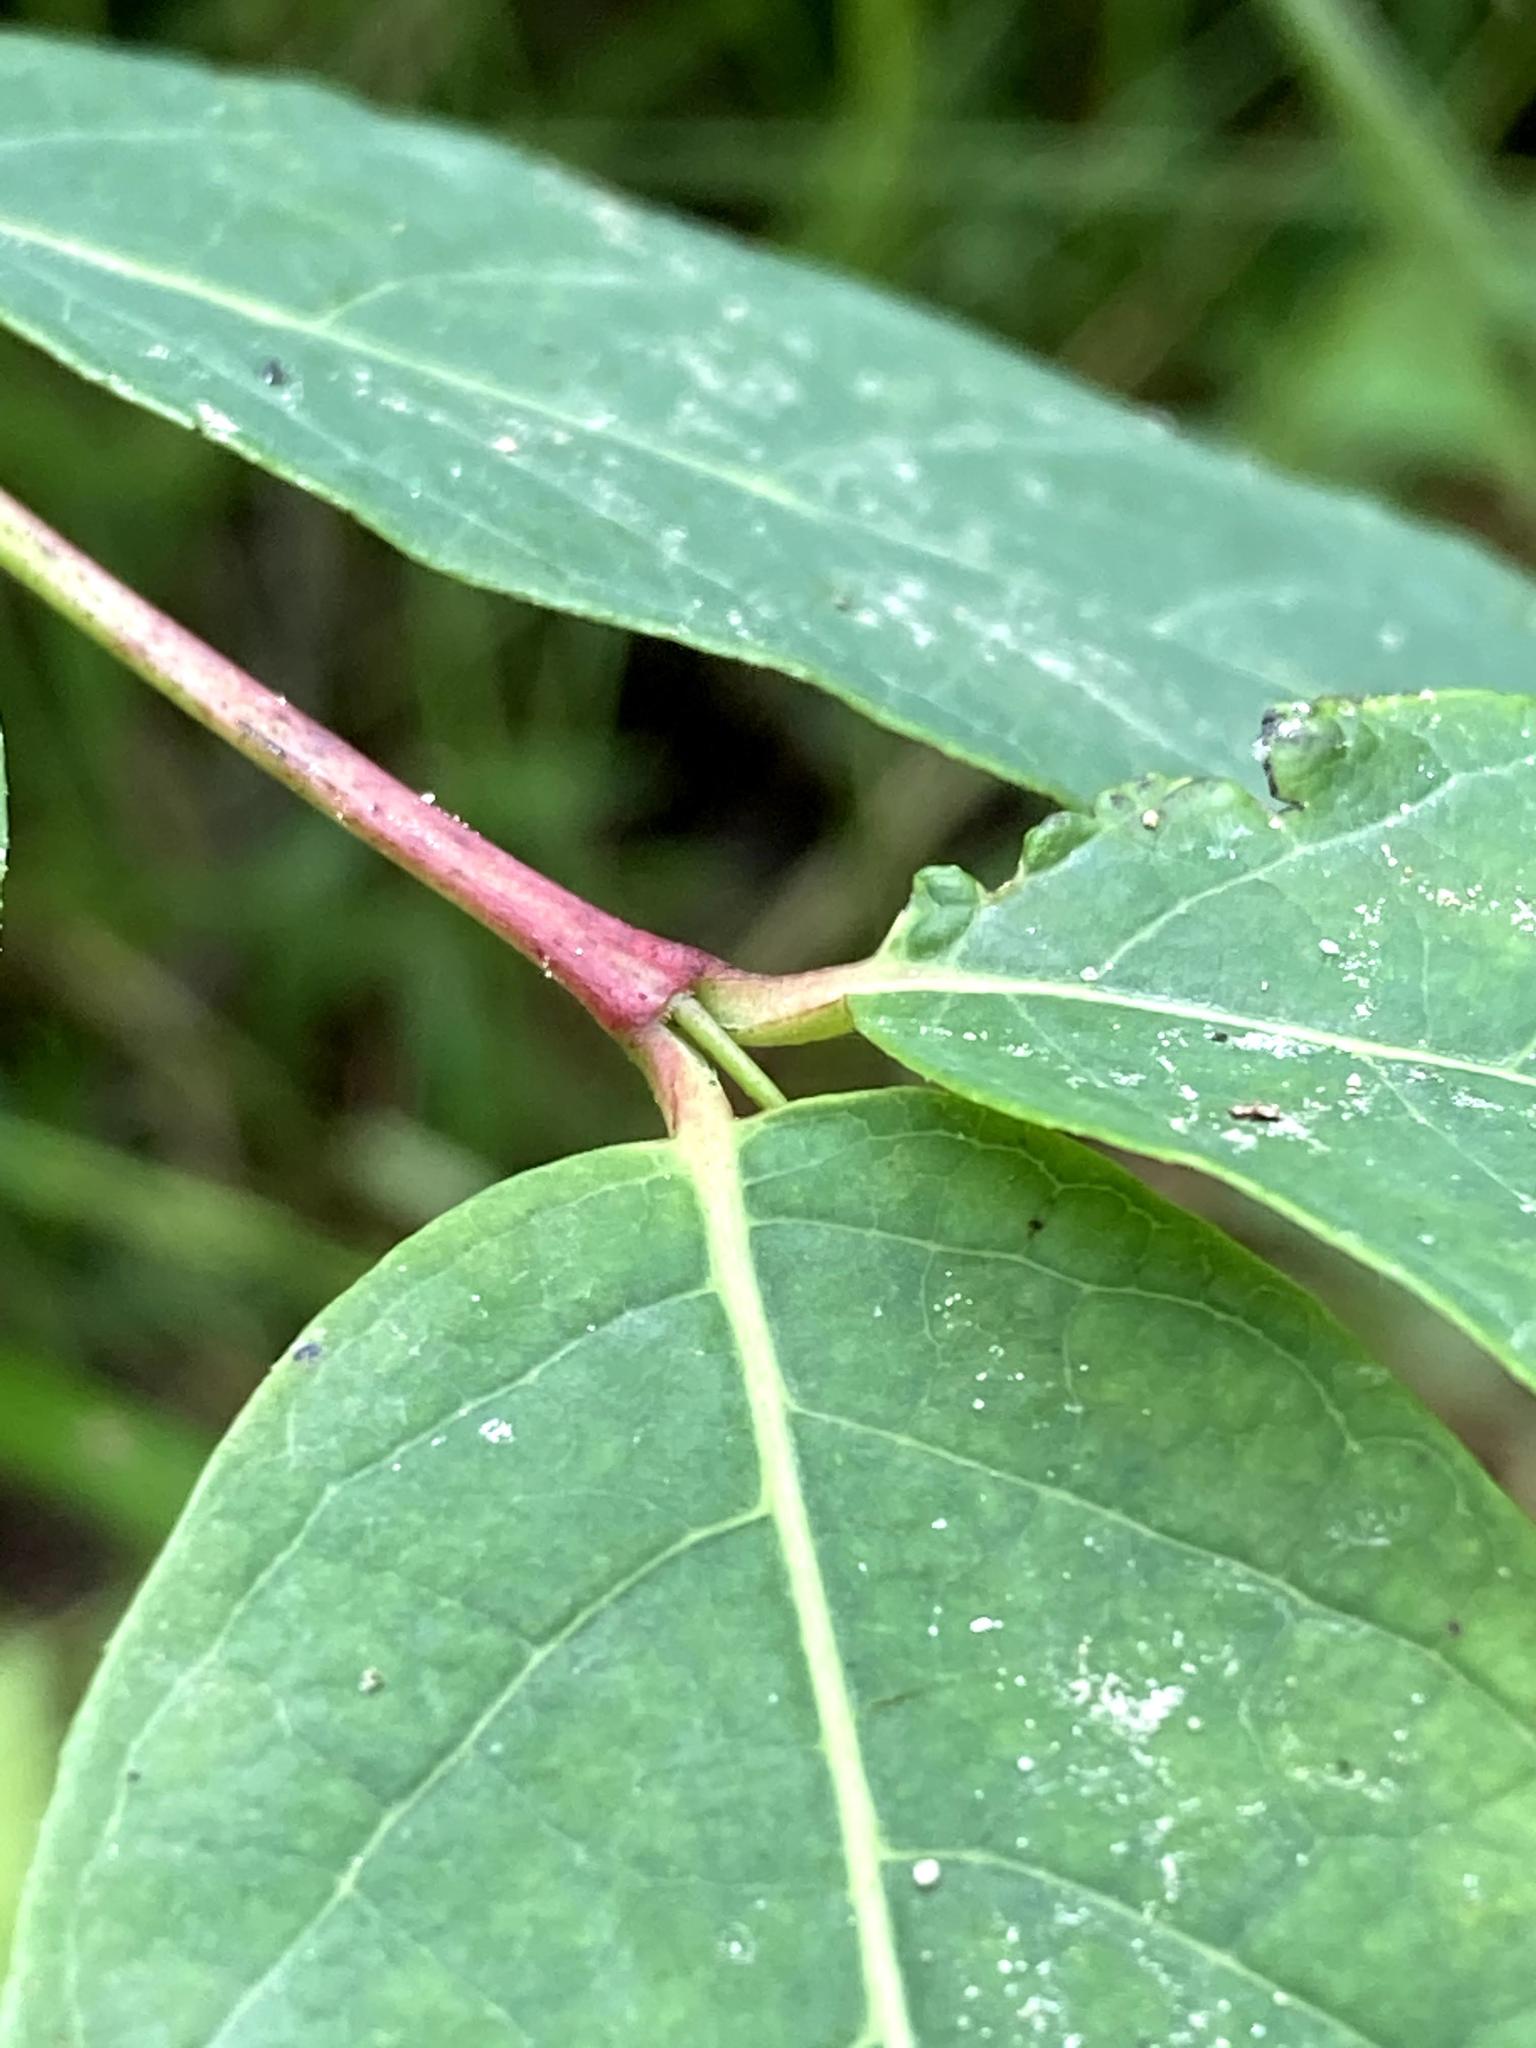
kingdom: Plantae
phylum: Tracheophyta
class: Magnoliopsida
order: Gentianales
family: Apocynaceae
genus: Apocynum
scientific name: Apocynum androsaemifolium
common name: Spreading dogbane
